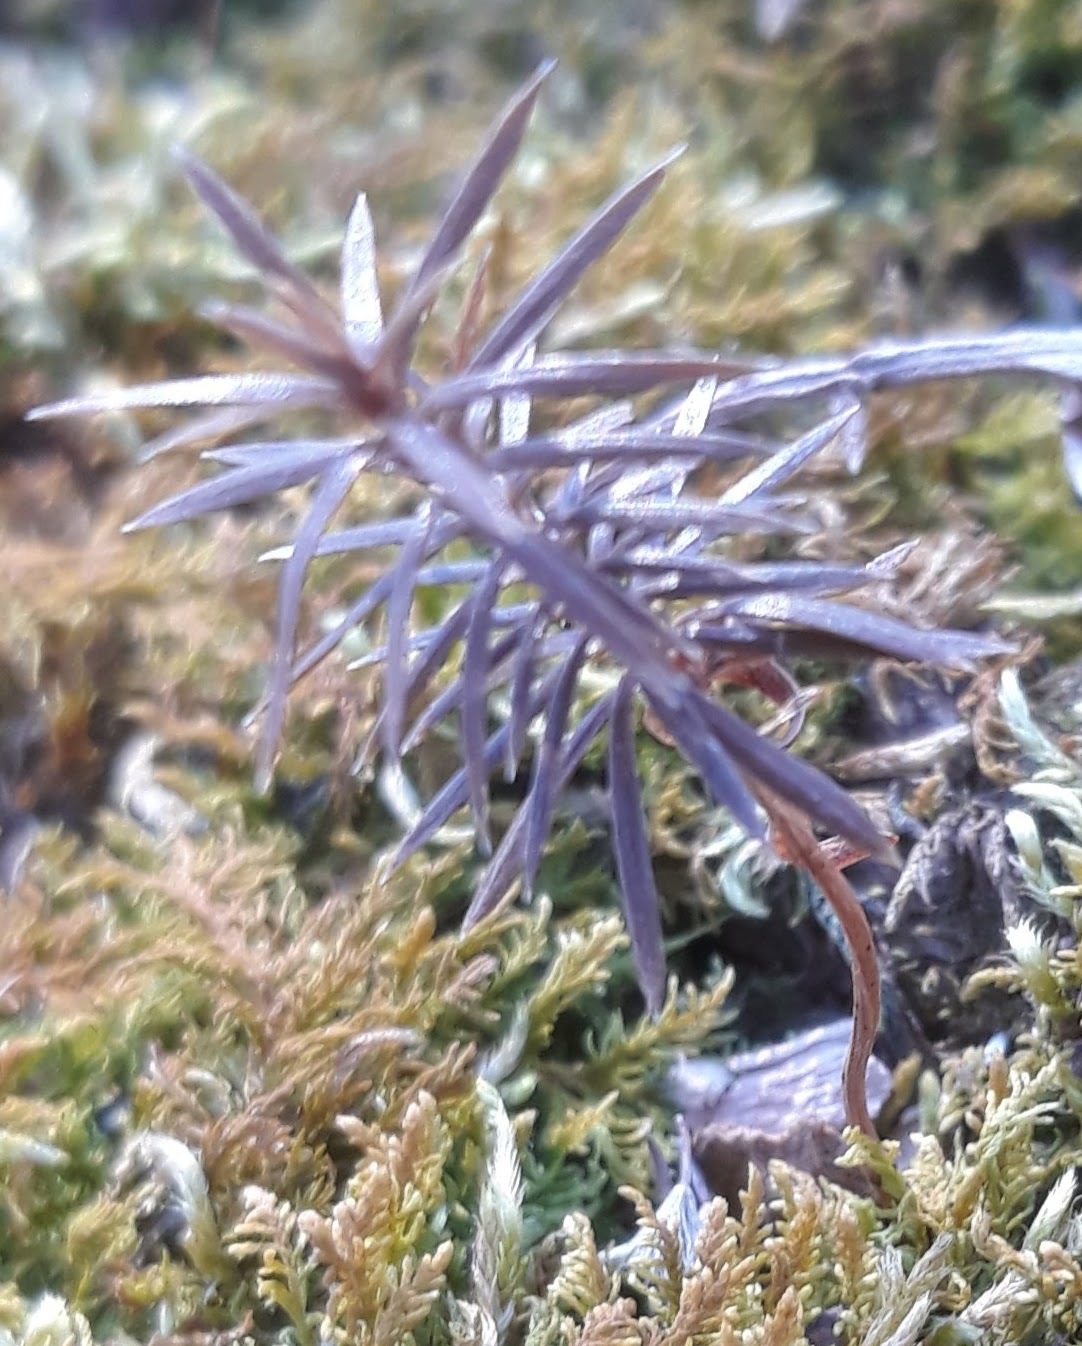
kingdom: Plantae
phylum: Tracheophyta
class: Pinopsida
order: Pinales
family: Cupressaceae
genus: Juniperus
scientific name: Juniperus virginiana
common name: Red juniper
